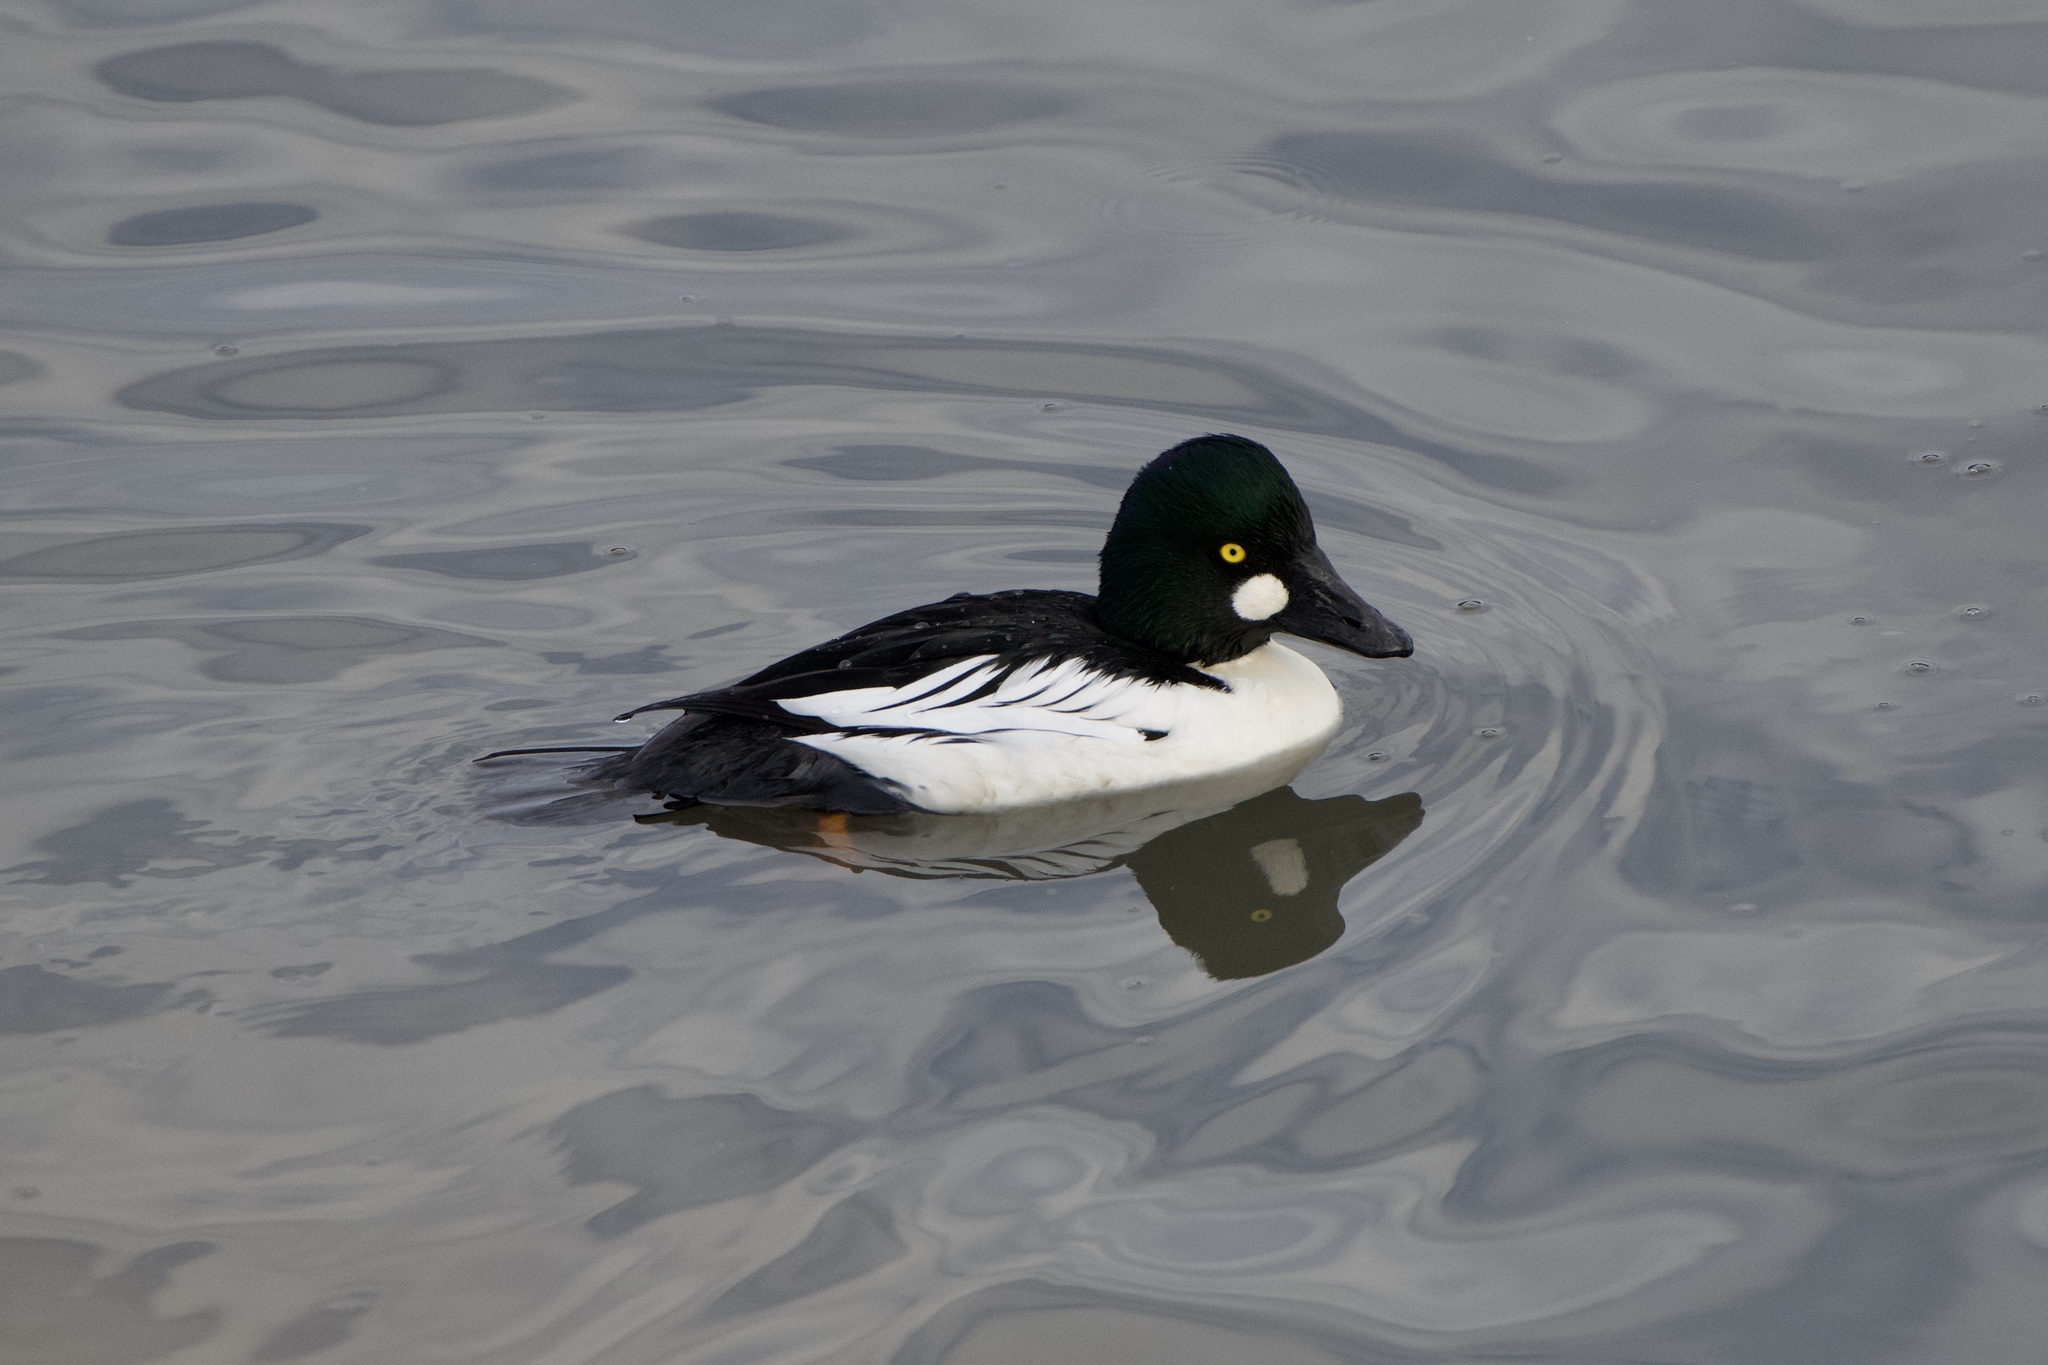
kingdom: Animalia
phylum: Chordata
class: Aves
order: Anseriformes
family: Anatidae
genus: Bucephala
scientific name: Bucephala clangula
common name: Common goldeneye
